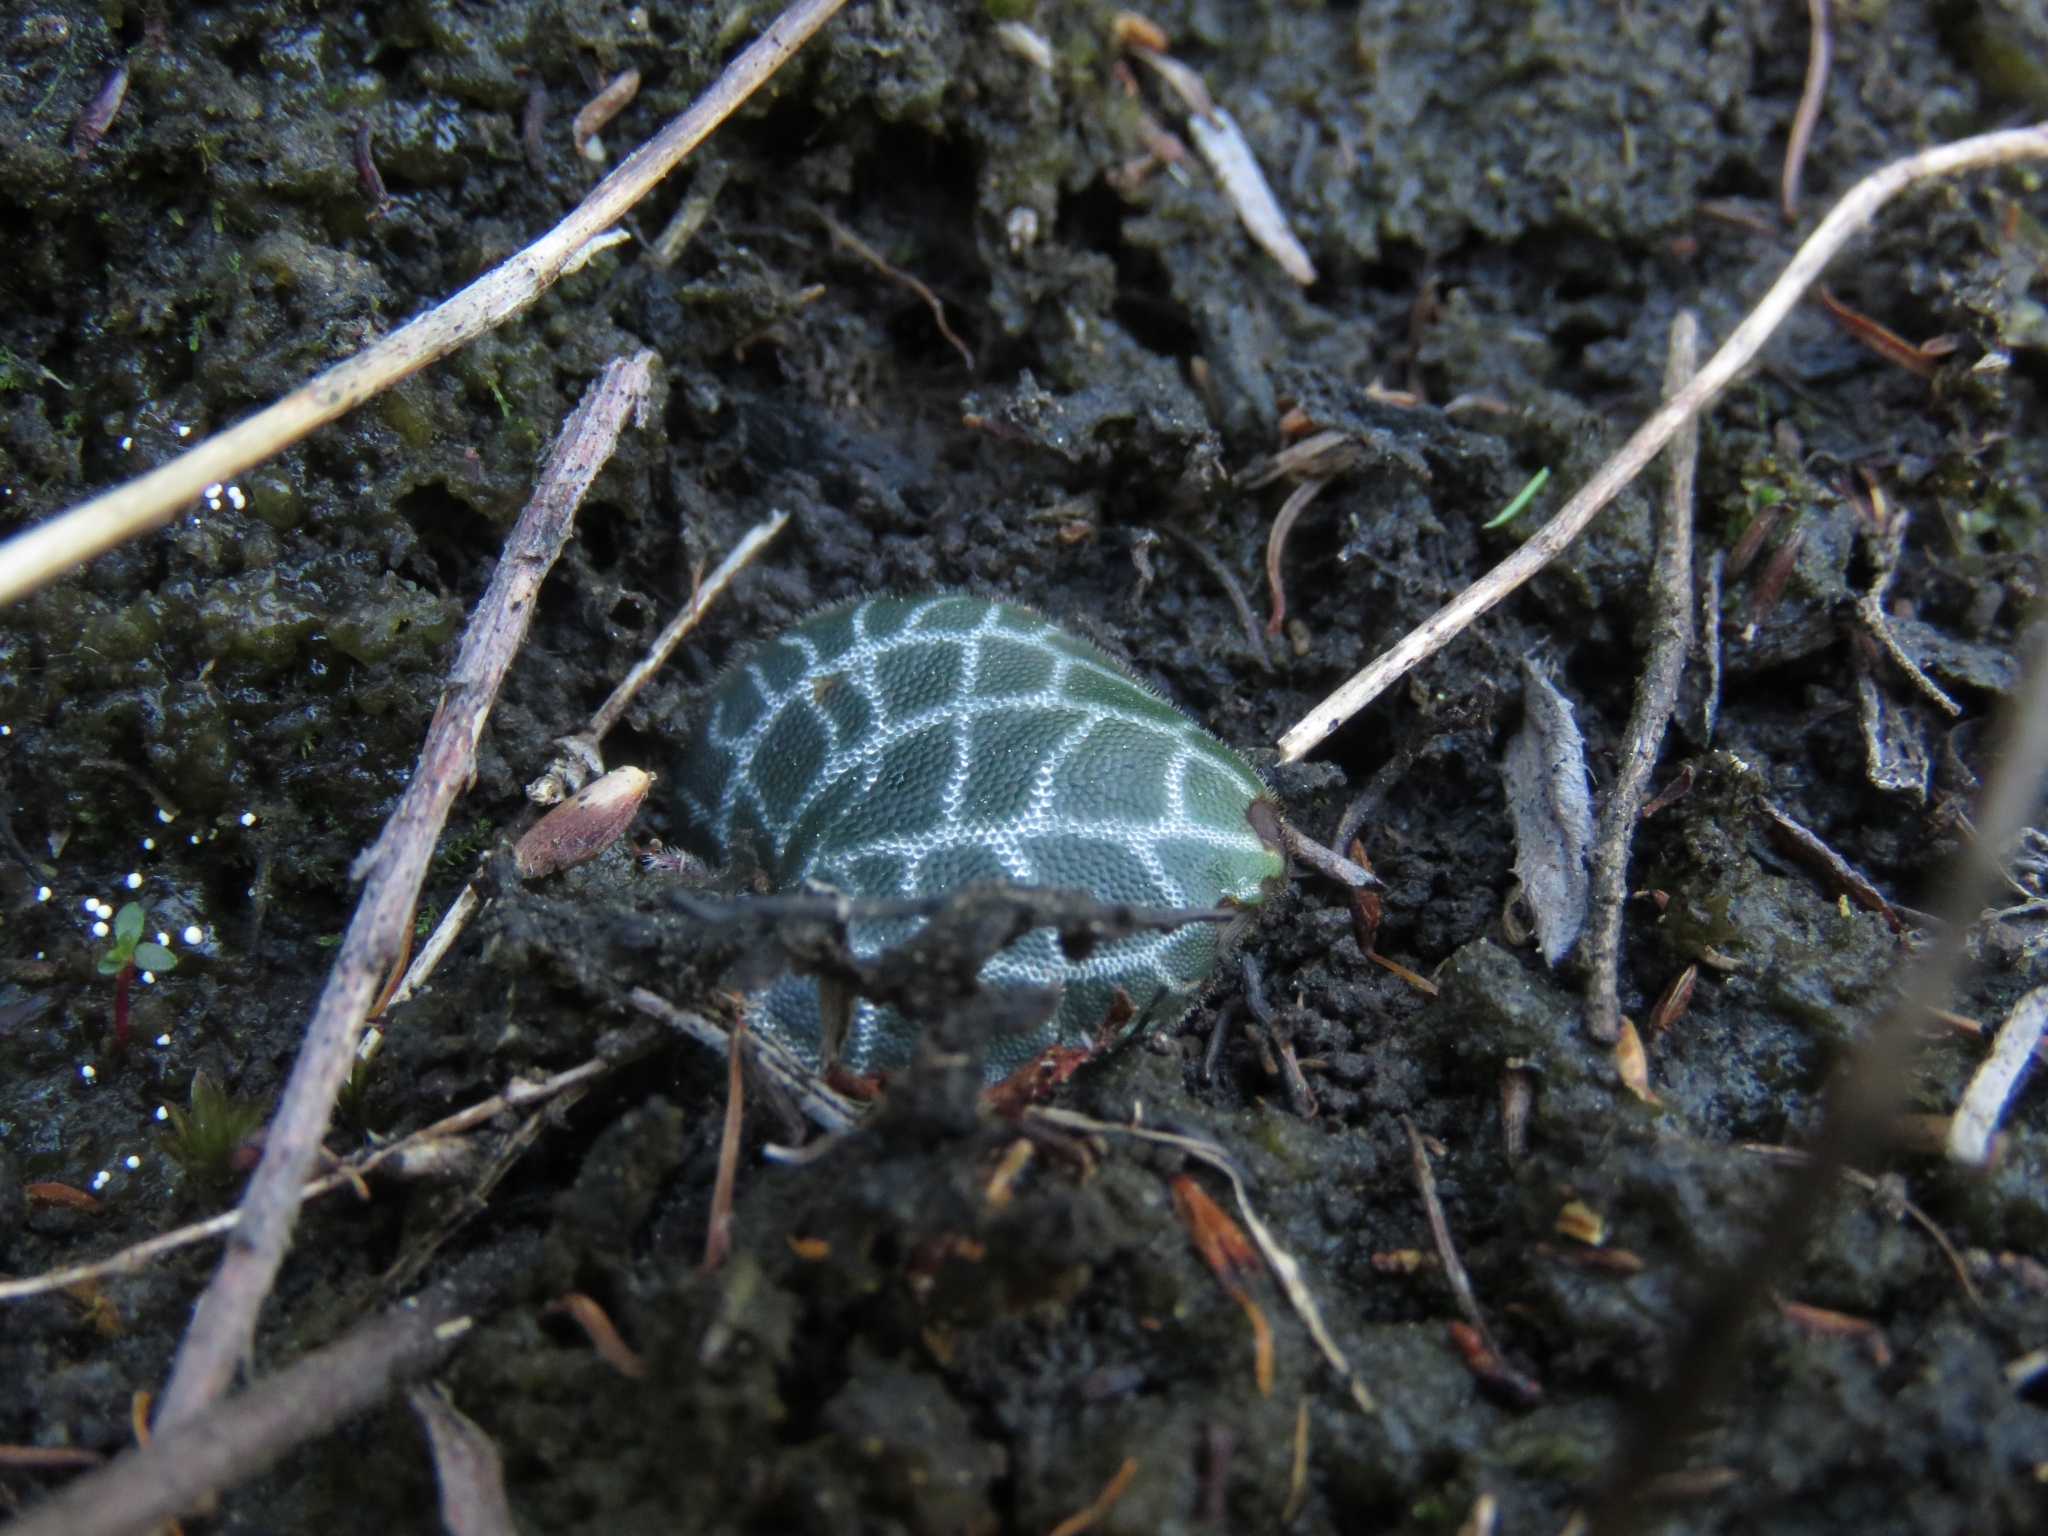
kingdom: Plantae
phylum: Tracheophyta
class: Liliopsida
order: Asparagales
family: Orchidaceae
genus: Holothrix
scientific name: Holothrix etheliae
